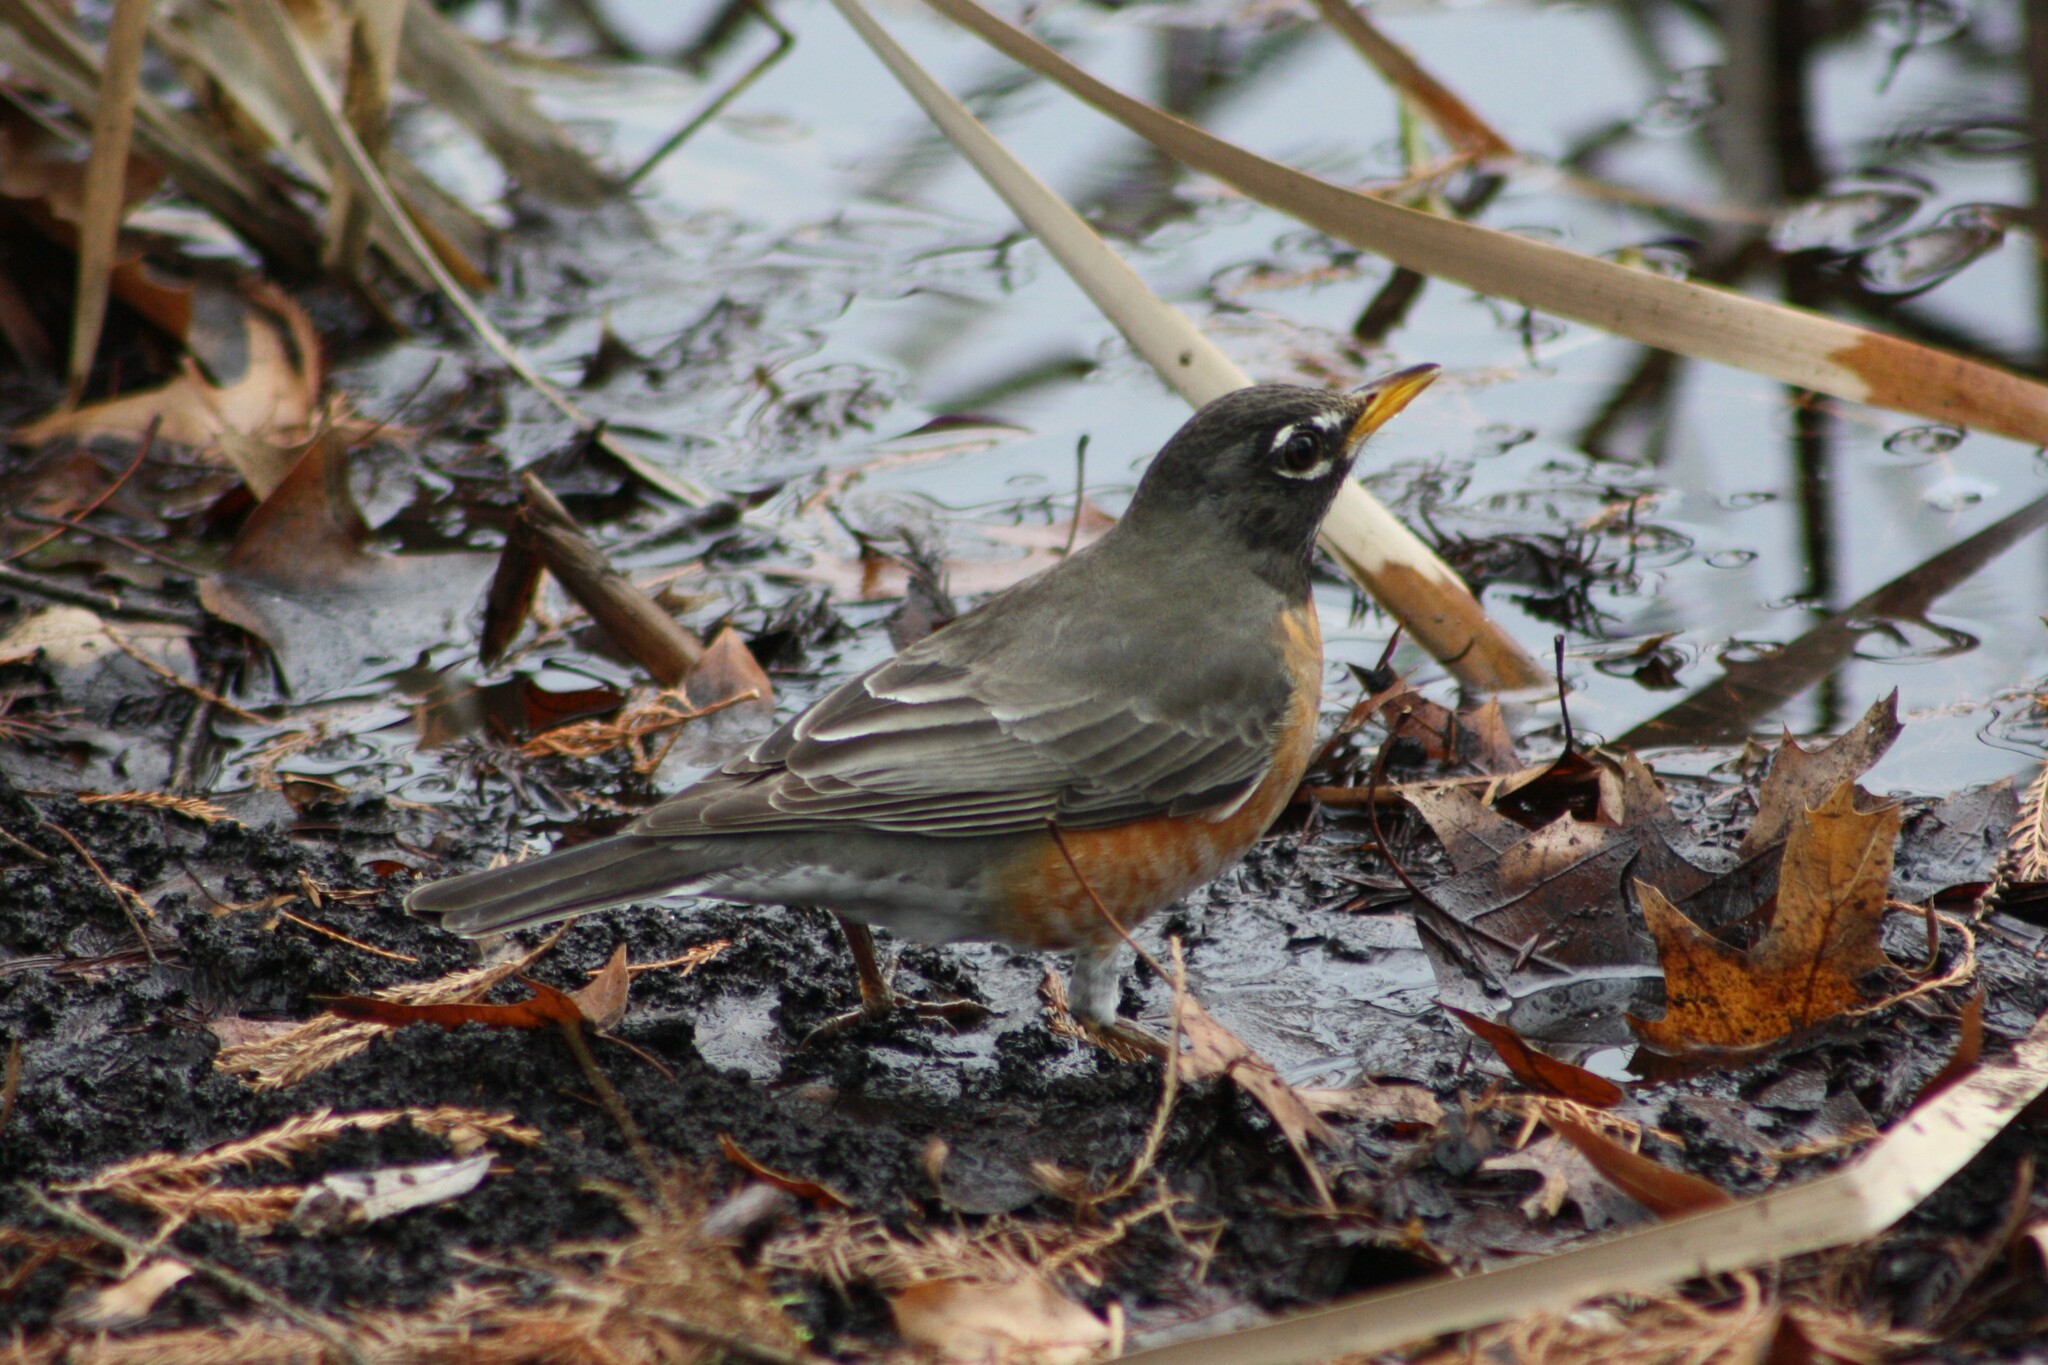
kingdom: Animalia
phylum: Chordata
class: Aves
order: Passeriformes
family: Turdidae
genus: Turdus
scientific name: Turdus migratorius
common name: American robin
